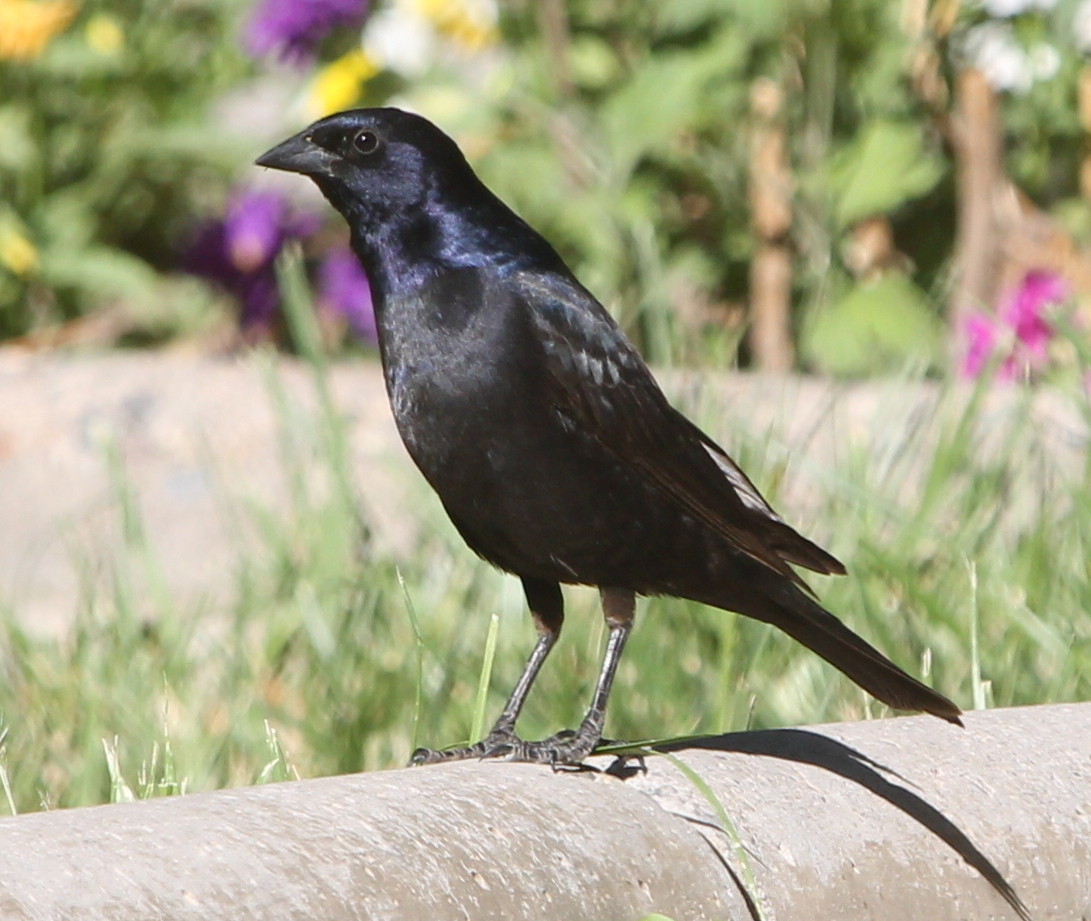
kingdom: Animalia
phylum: Chordata
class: Aves
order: Passeriformes
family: Icteridae
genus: Molothrus
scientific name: Molothrus bonariensis
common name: Shiny cowbird
